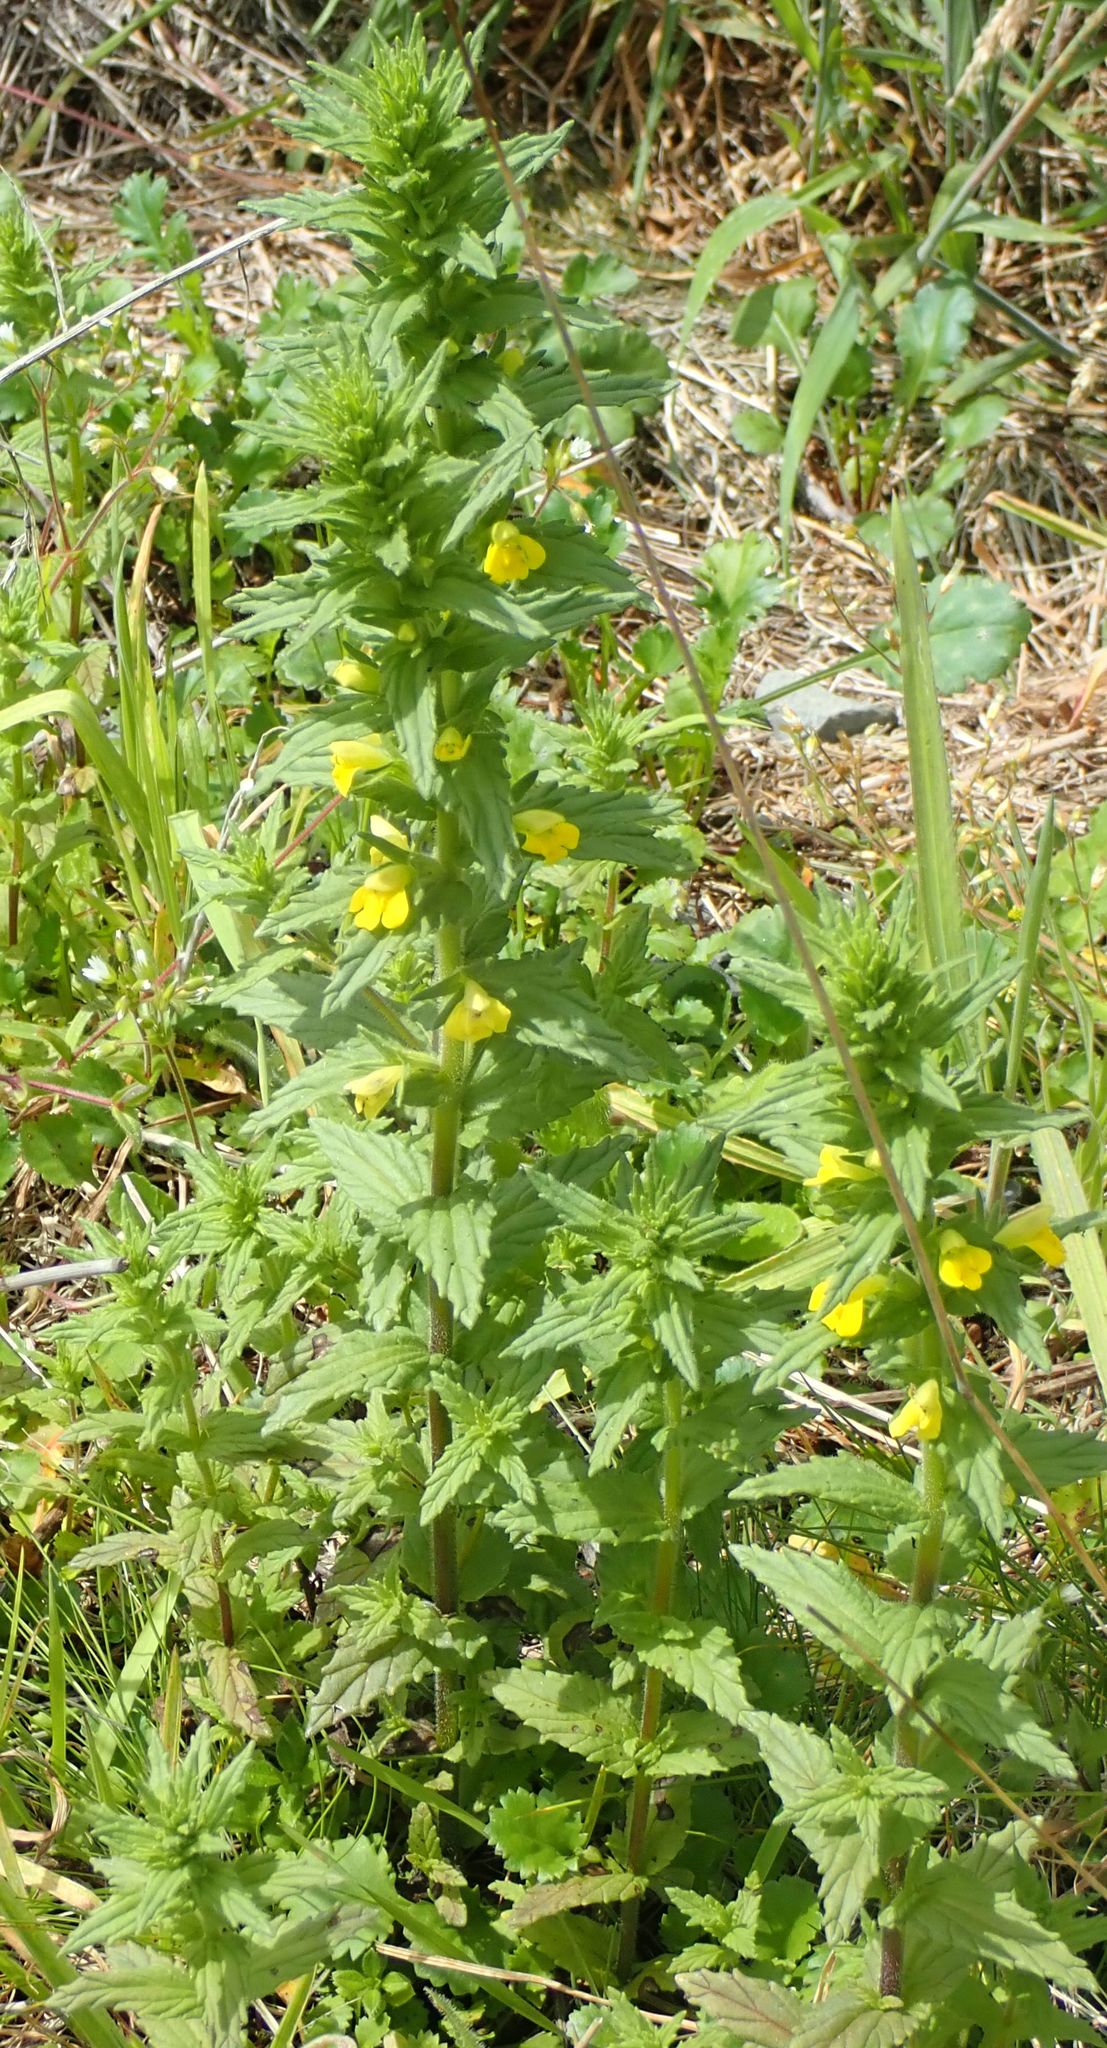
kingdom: Plantae
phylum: Tracheophyta
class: Magnoliopsida
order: Lamiales
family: Orobanchaceae
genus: Bellardia
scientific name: Bellardia viscosa
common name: Sticky parentucellia
